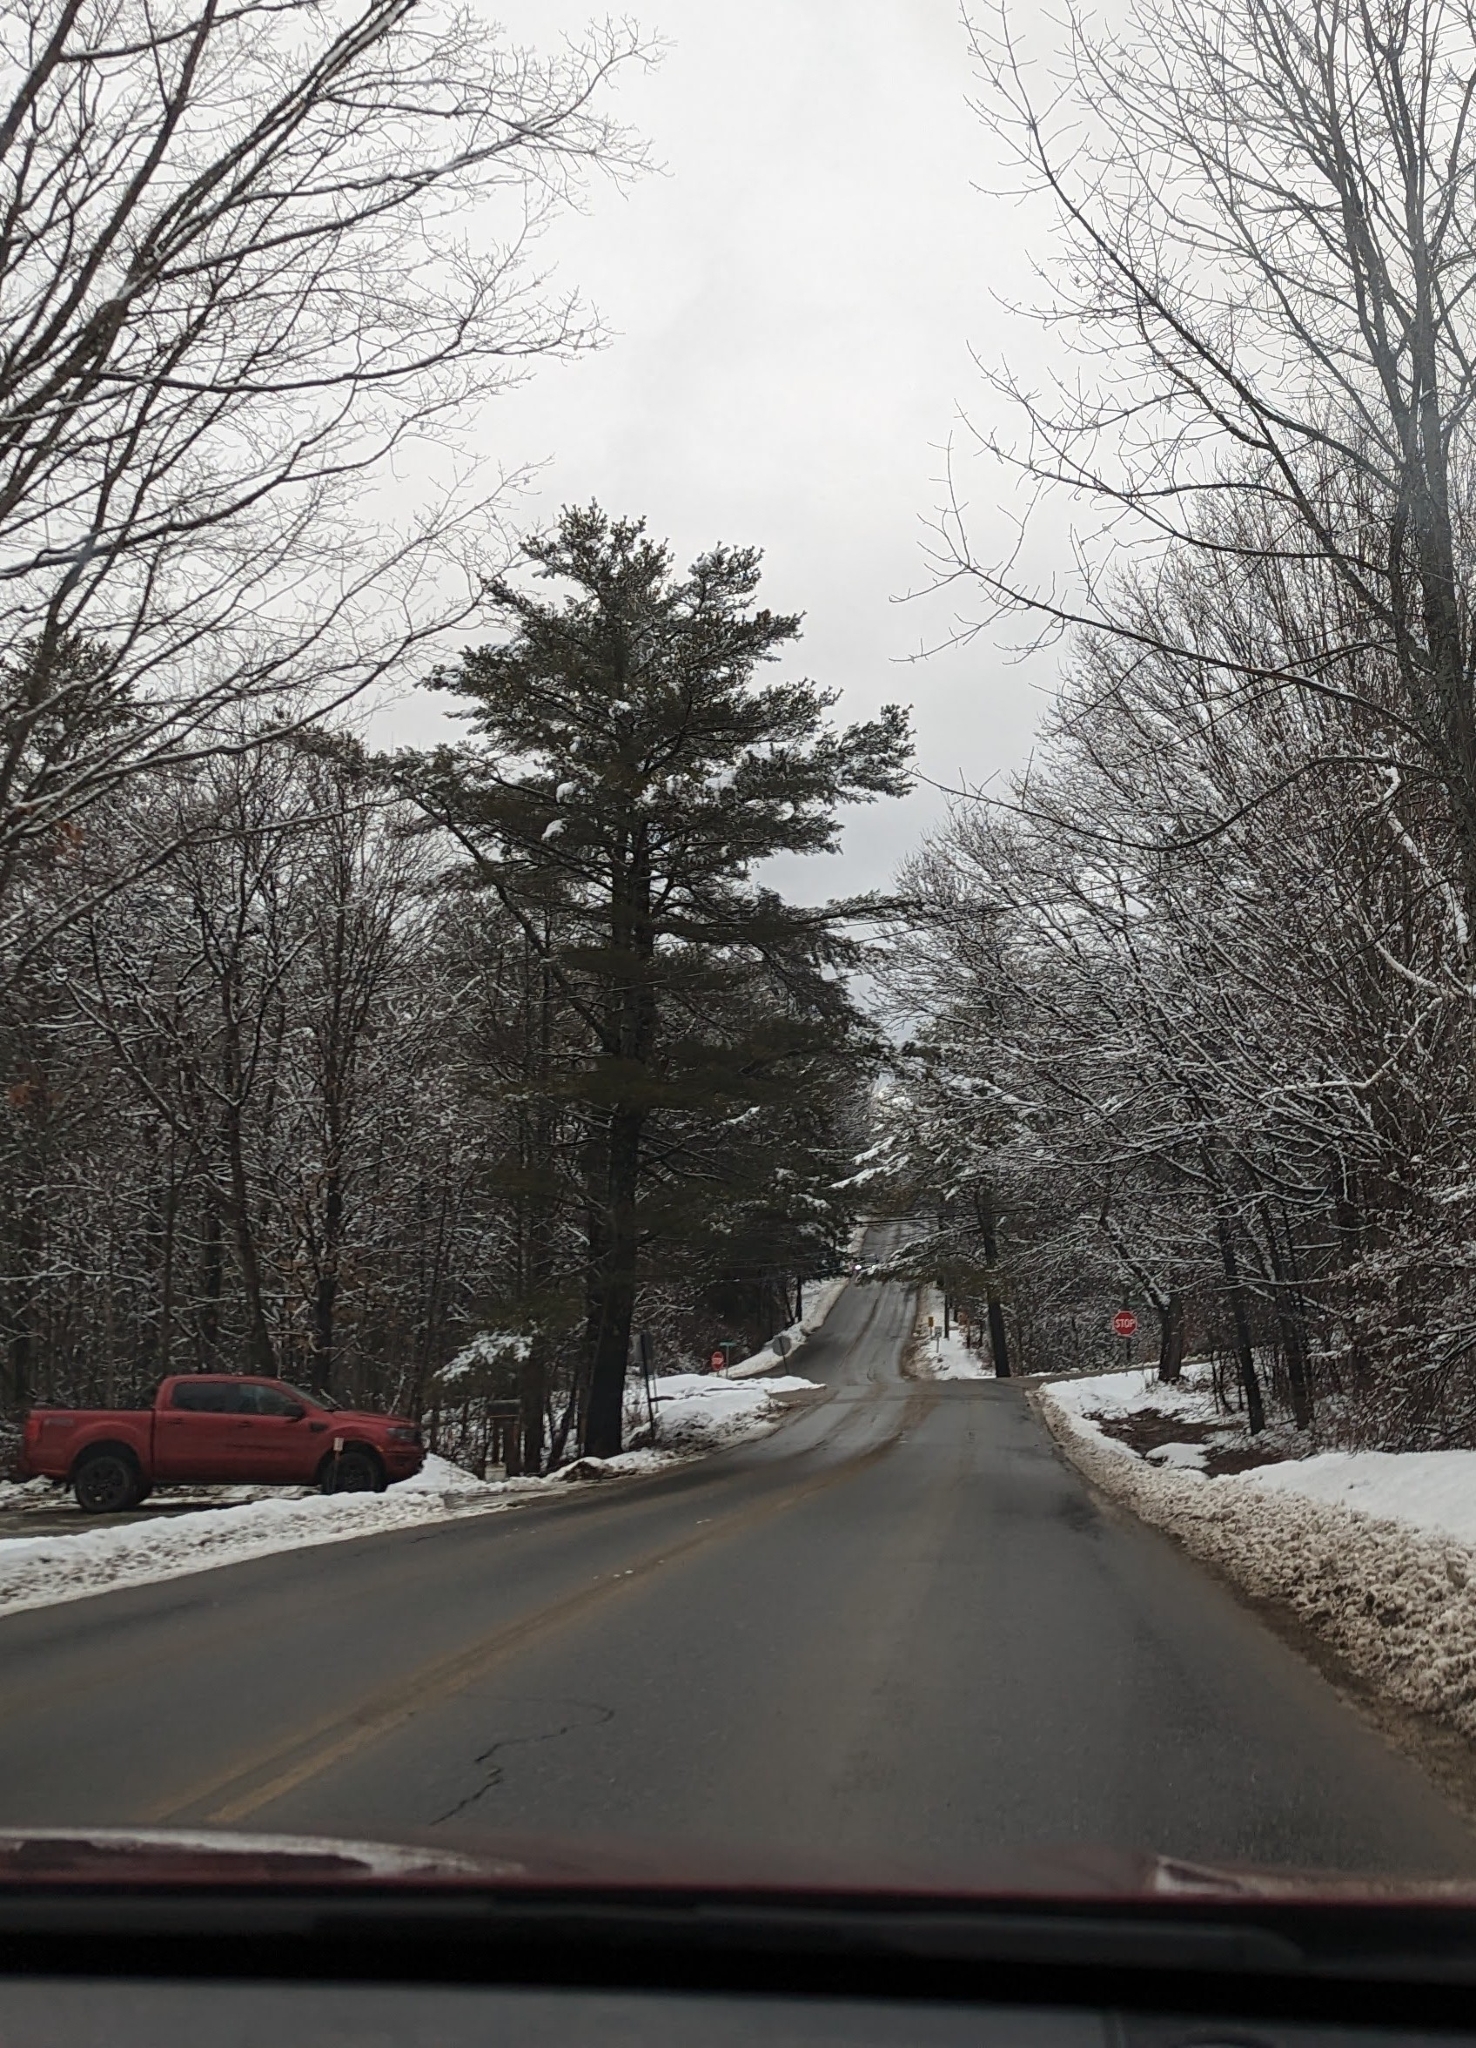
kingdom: Plantae
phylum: Tracheophyta
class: Pinopsida
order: Pinales
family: Pinaceae
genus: Pinus
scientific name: Pinus strobus
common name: Weymouth pine
